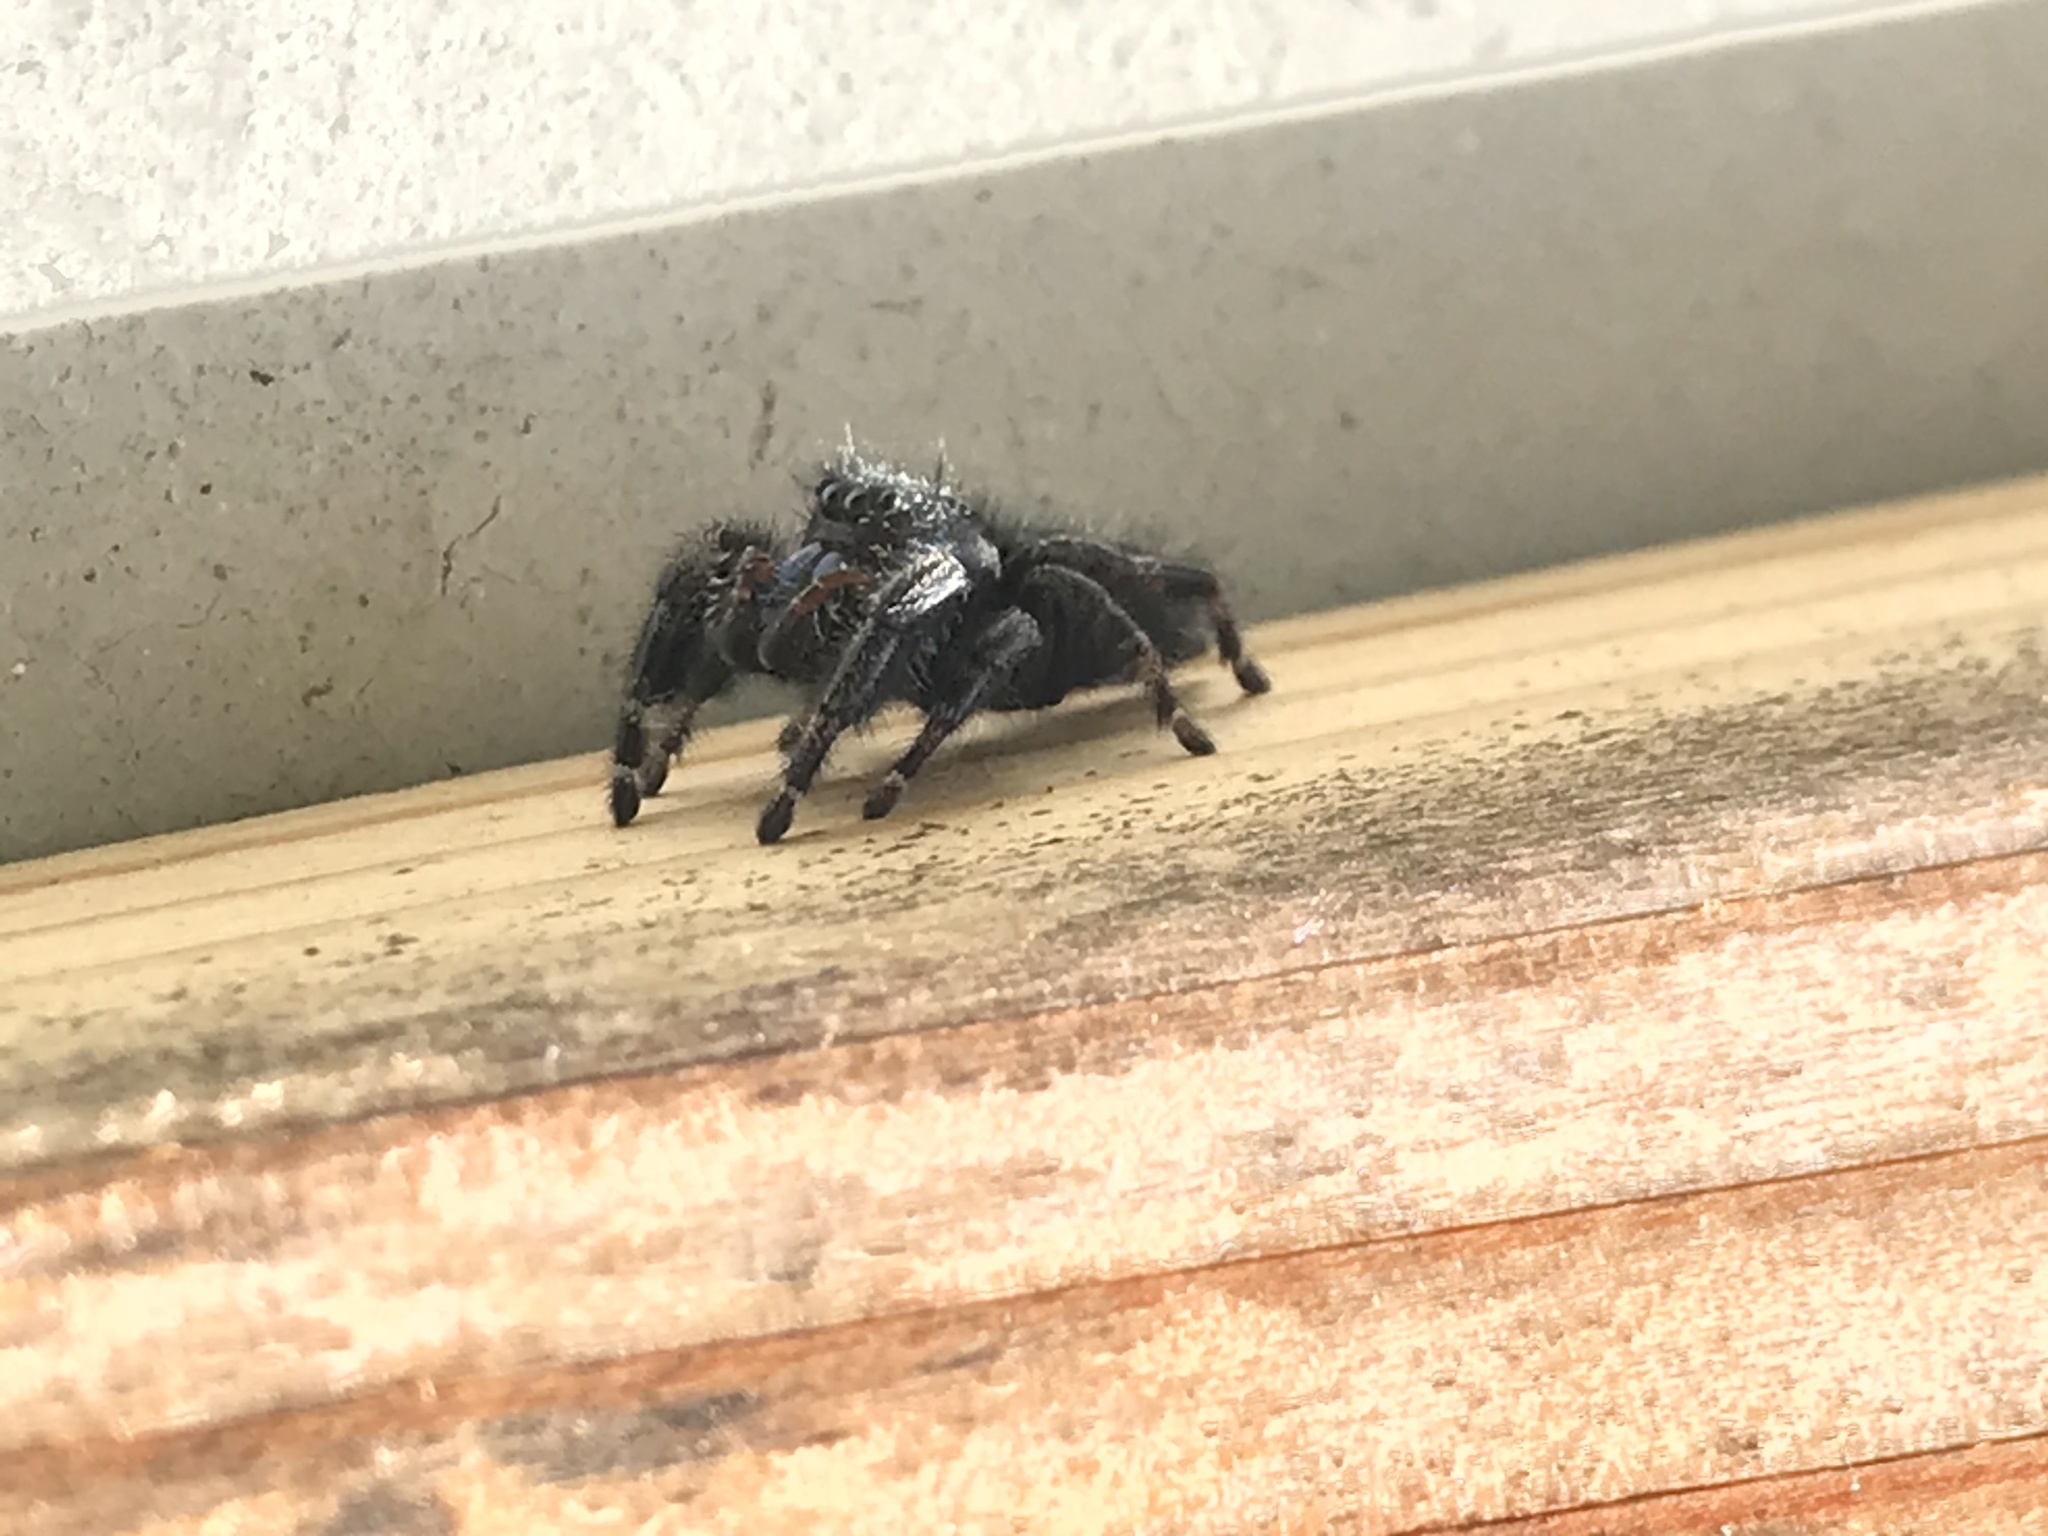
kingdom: Animalia
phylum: Arthropoda
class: Arachnida
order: Araneae
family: Salticidae
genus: Phidippus
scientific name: Phidippus audax
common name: Bold jumper
